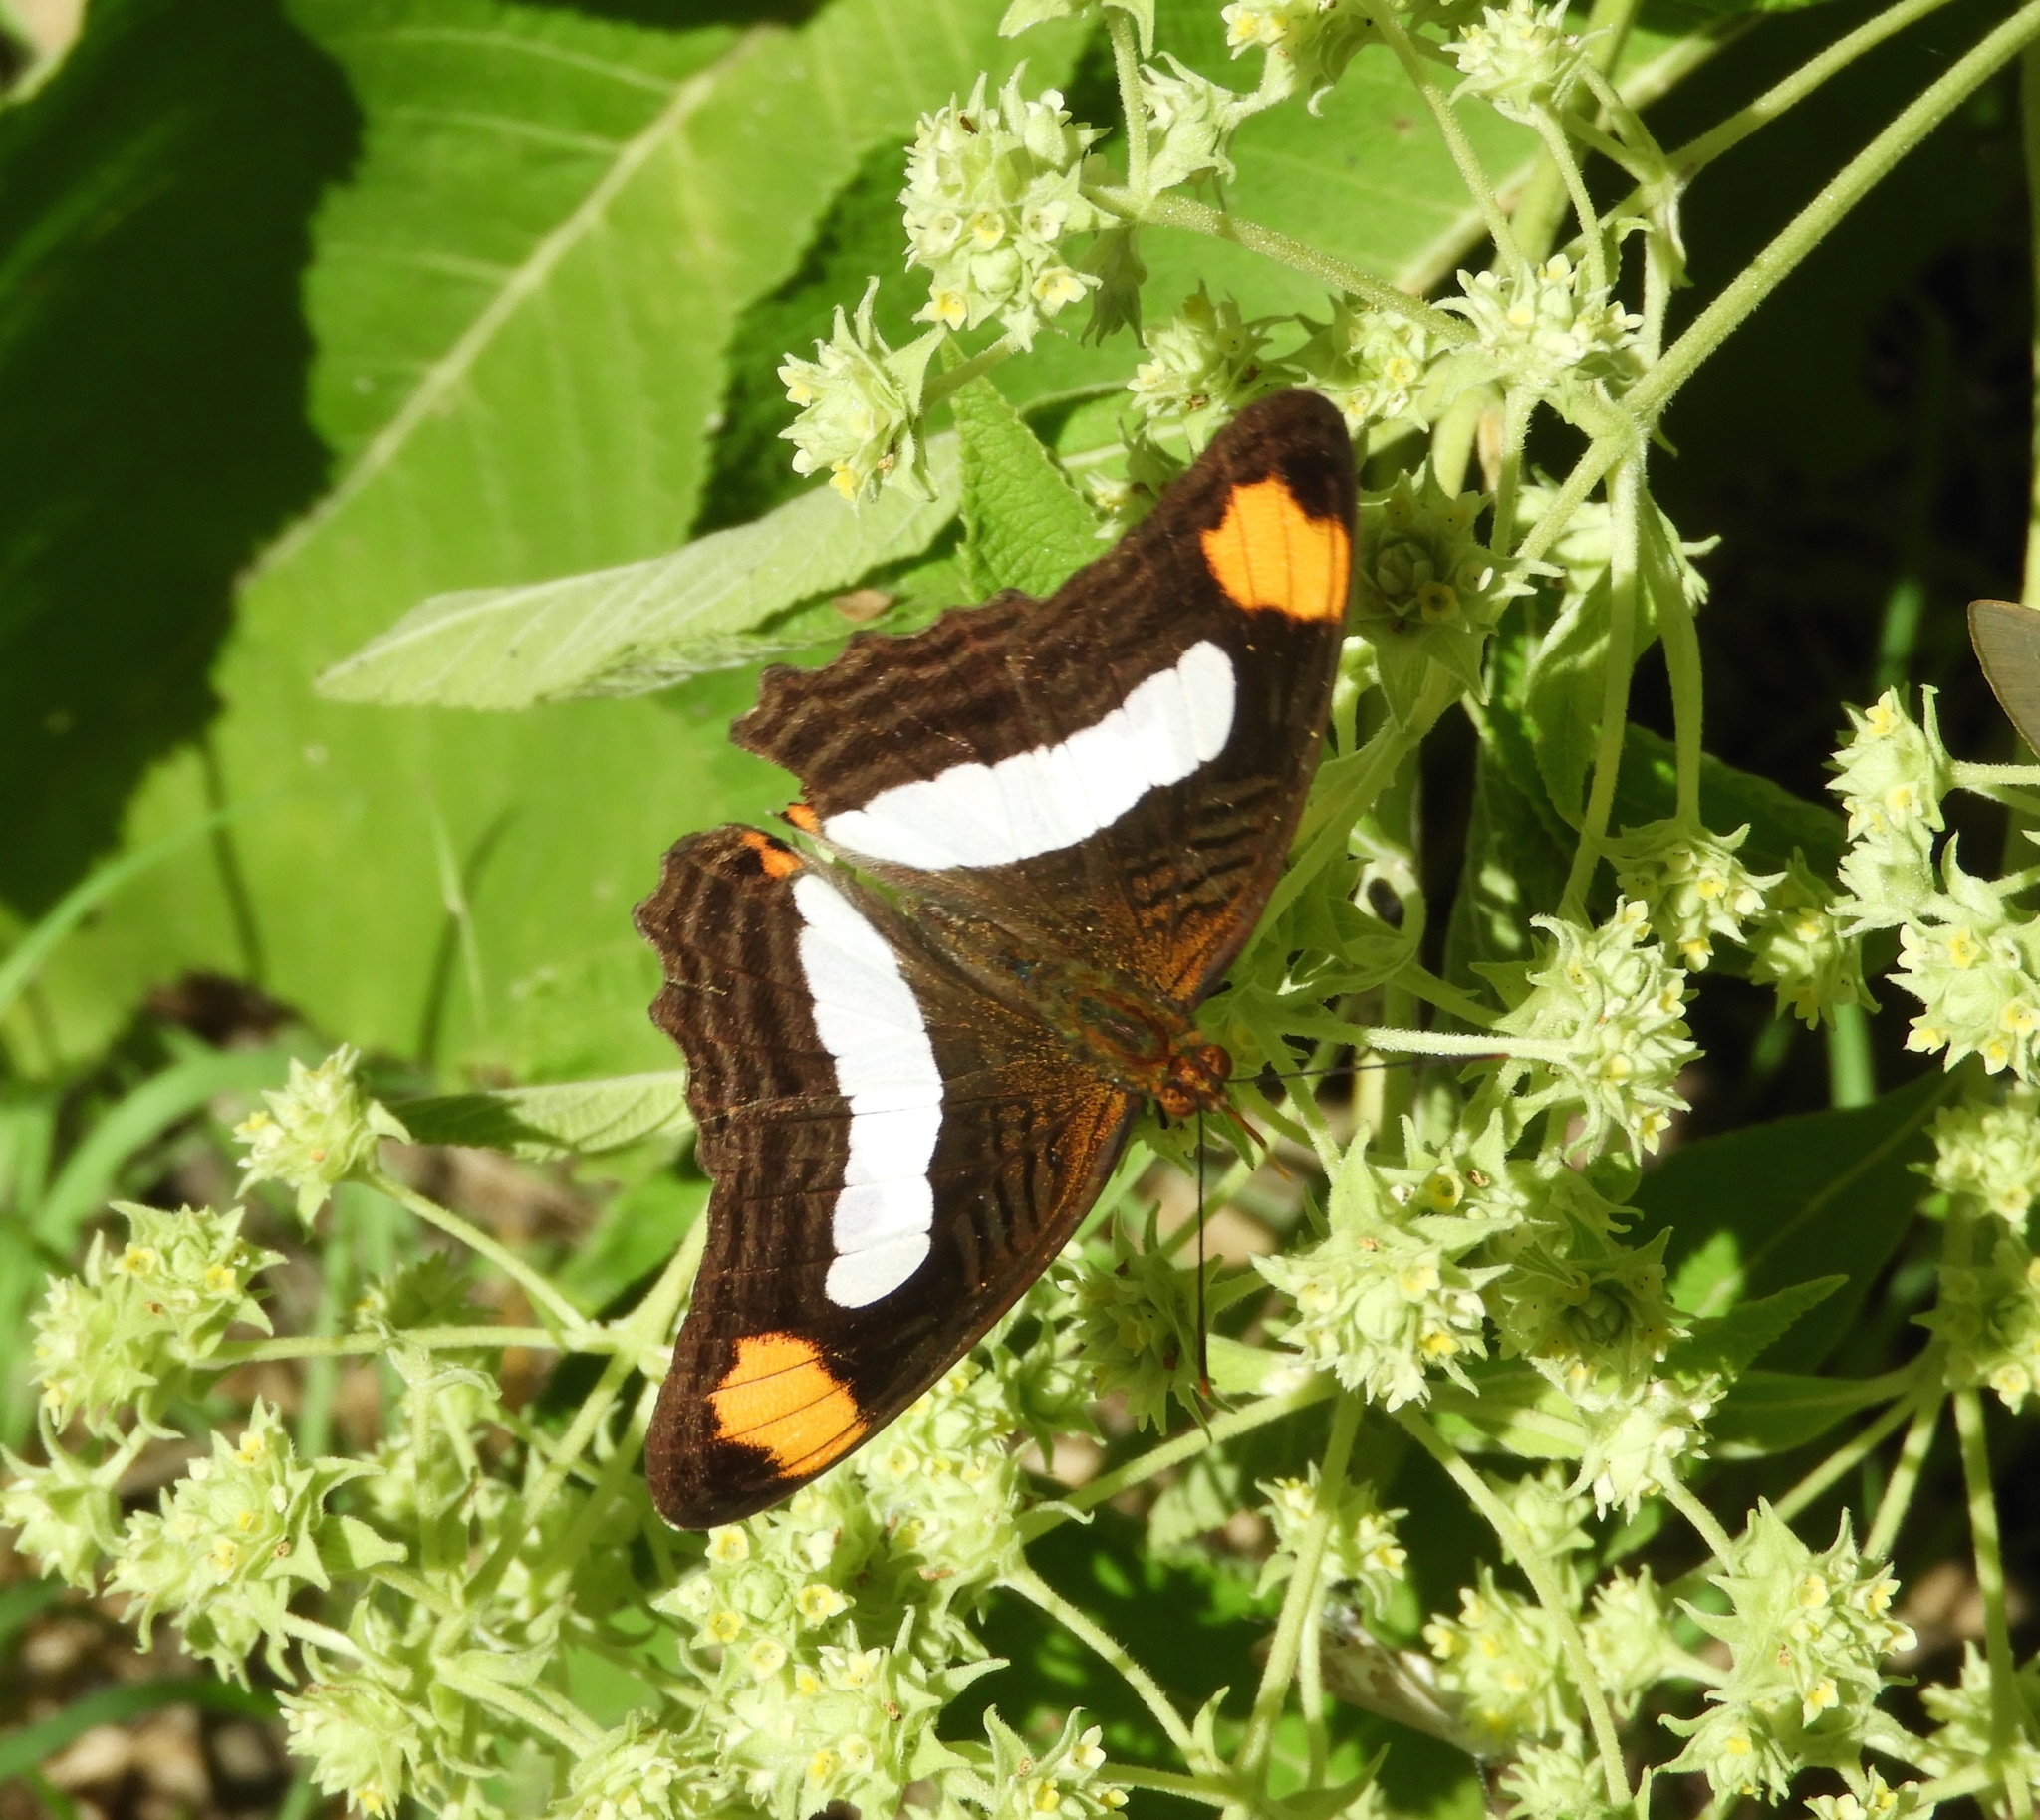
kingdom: Animalia
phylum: Arthropoda
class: Insecta
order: Lepidoptera
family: Nymphalidae
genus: Limenitis
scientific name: Limenitis iphiclus
